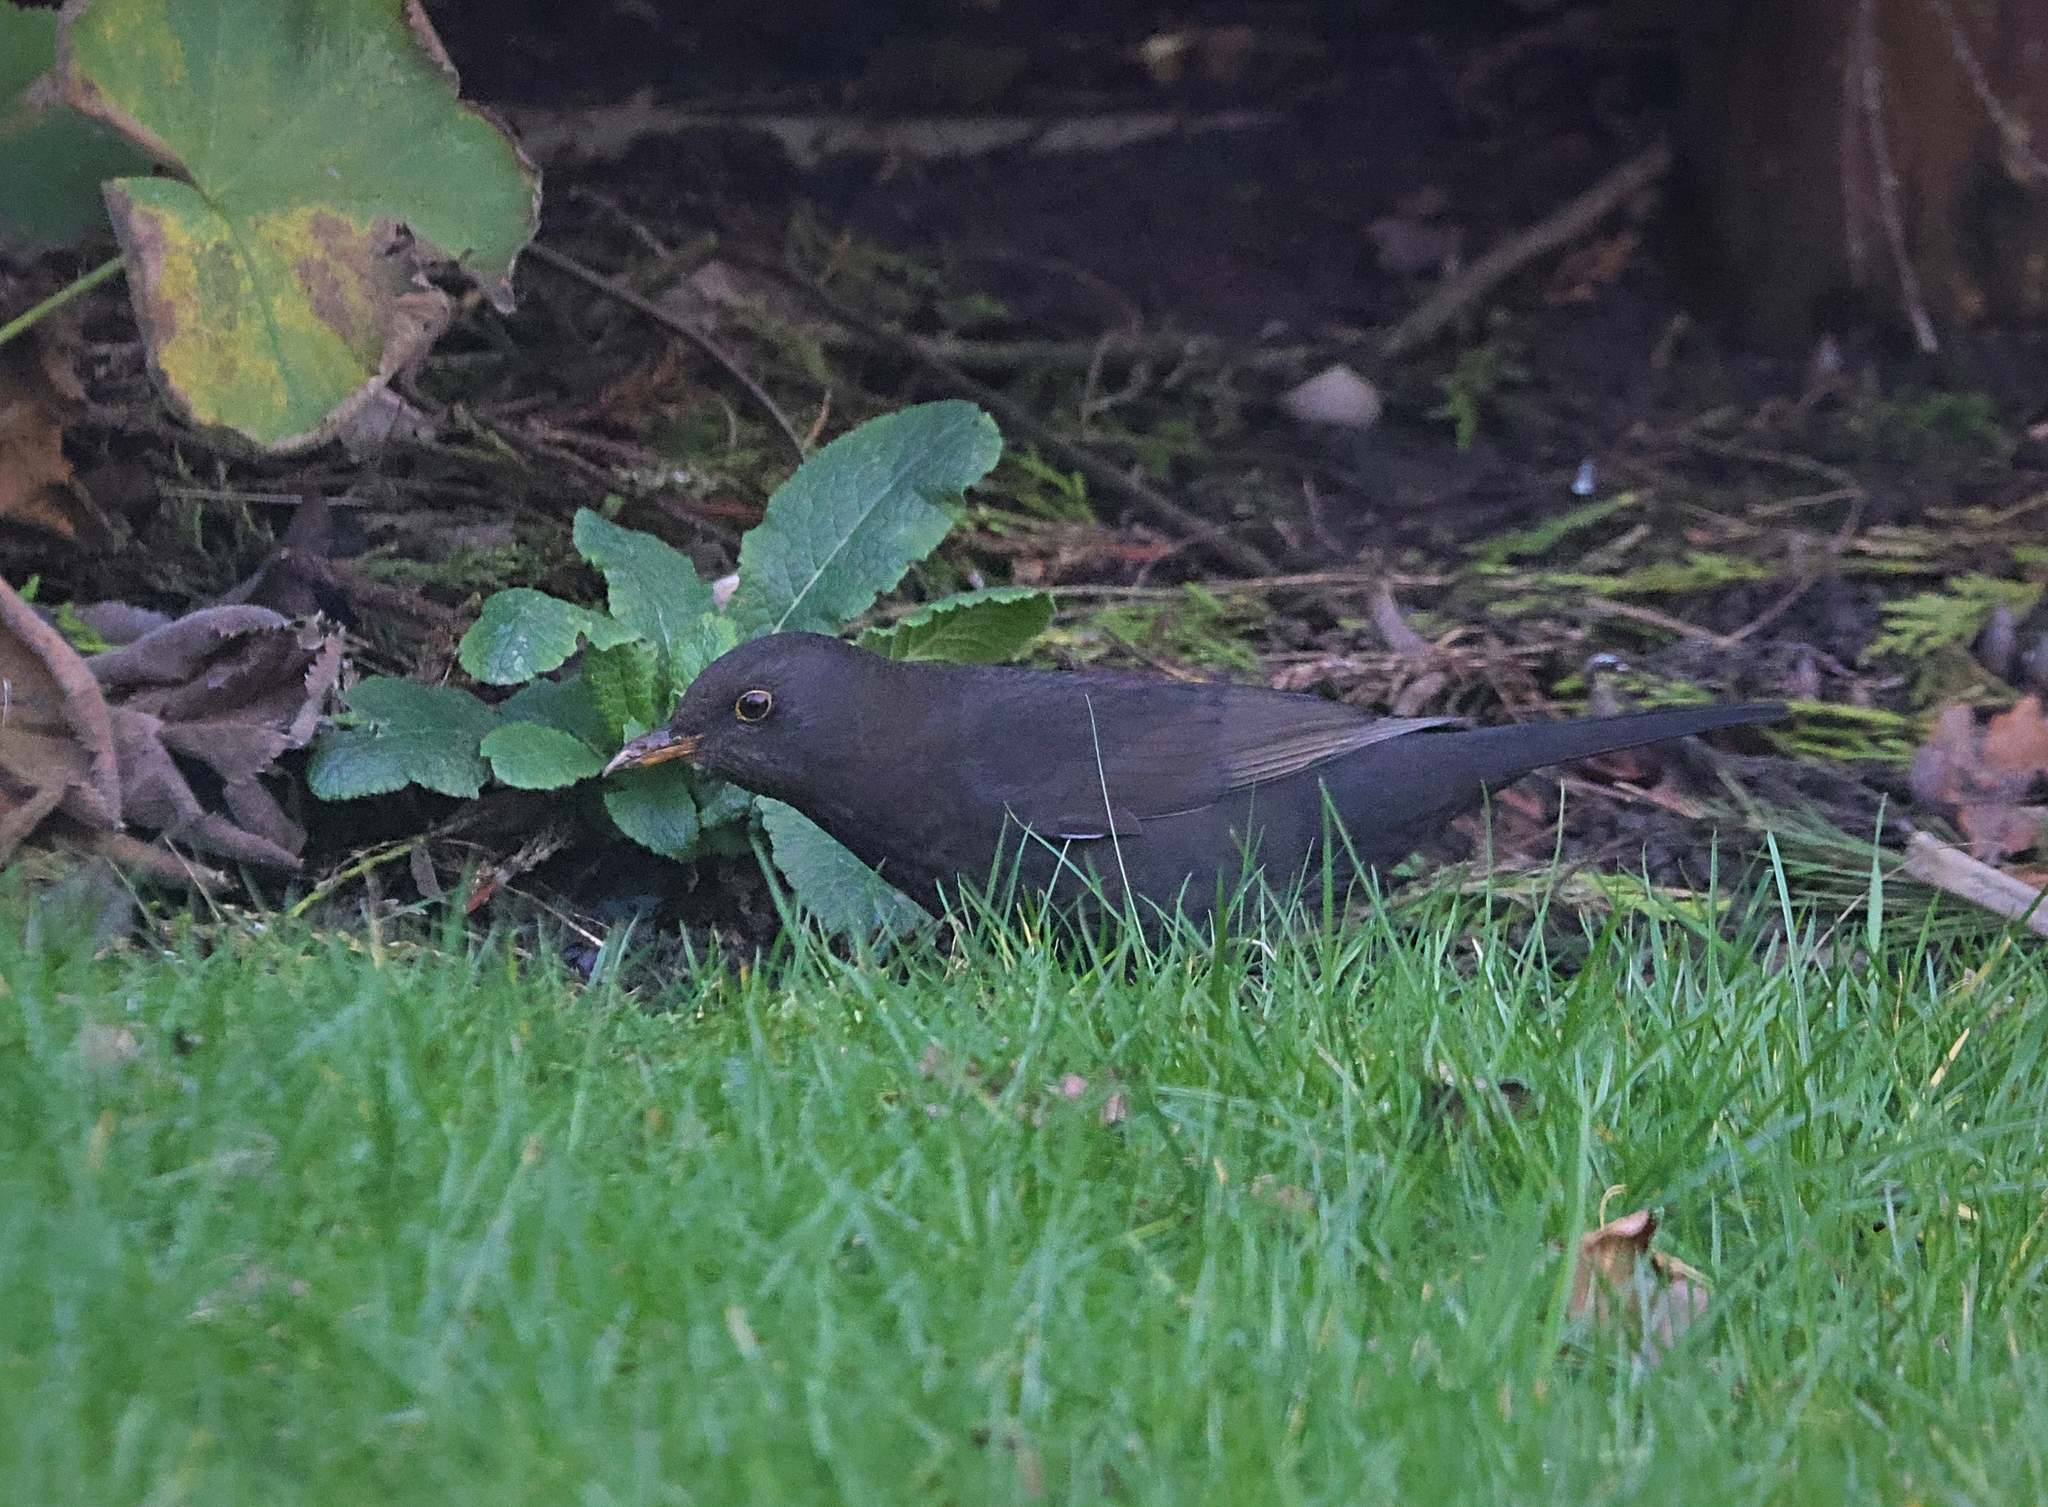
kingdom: Animalia
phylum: Chordata
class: Aves
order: Passeriformes
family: Turdidae
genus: Turdus
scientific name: Turdus merula
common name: Common blackbird
